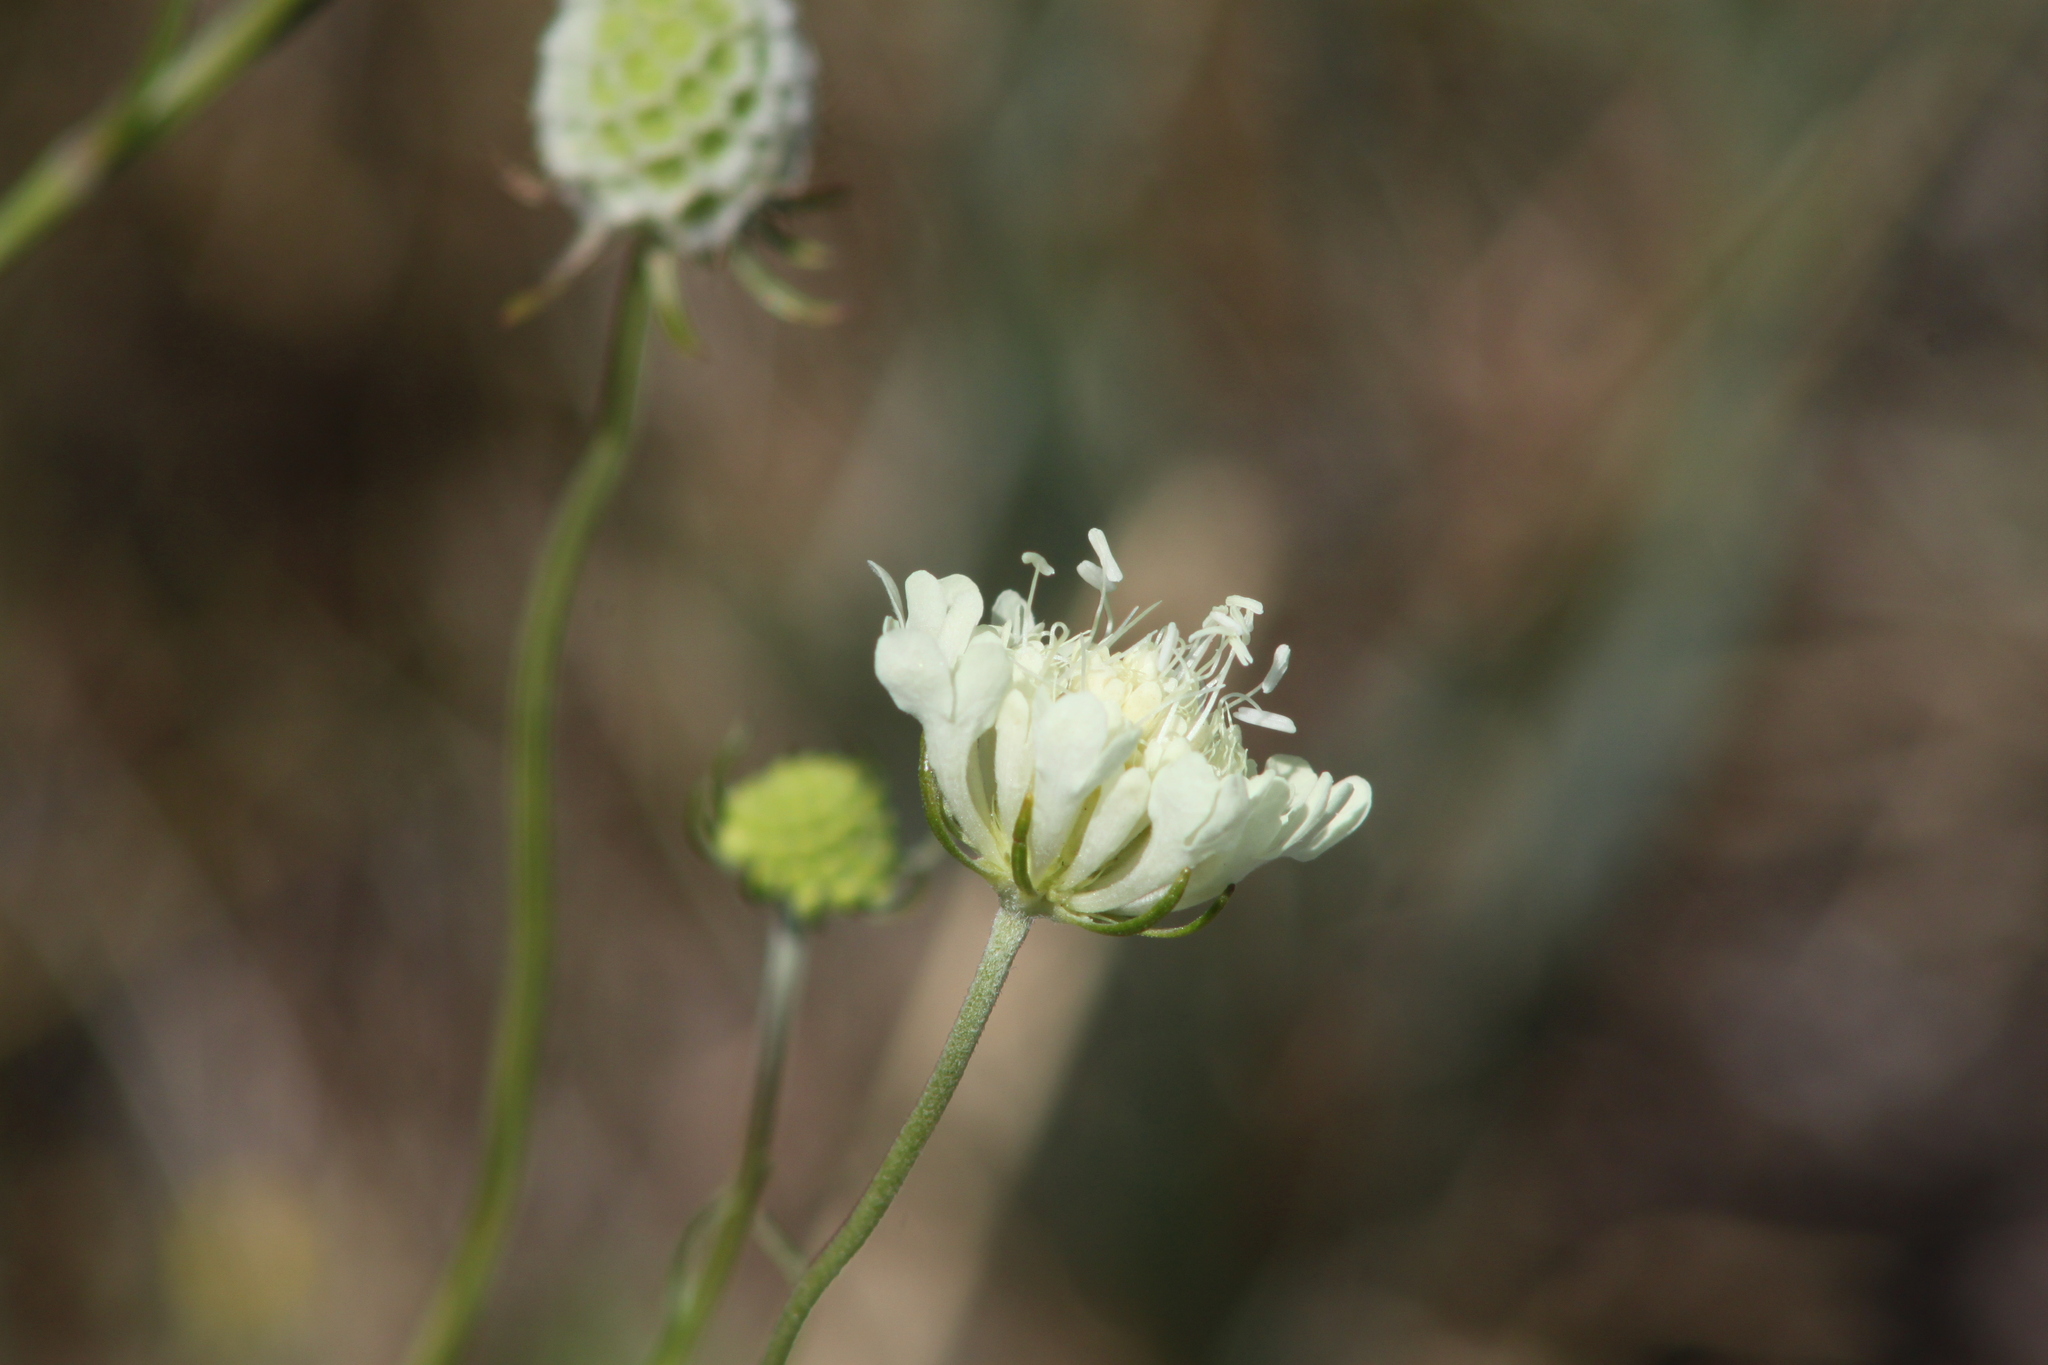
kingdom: Plantae
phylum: Tracheophyta
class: Magnoliopsida
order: Dipsacales
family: Caprifoliaceae
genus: Scabiosa
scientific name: Scabiosa ochroleuca
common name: Cream pincushions
